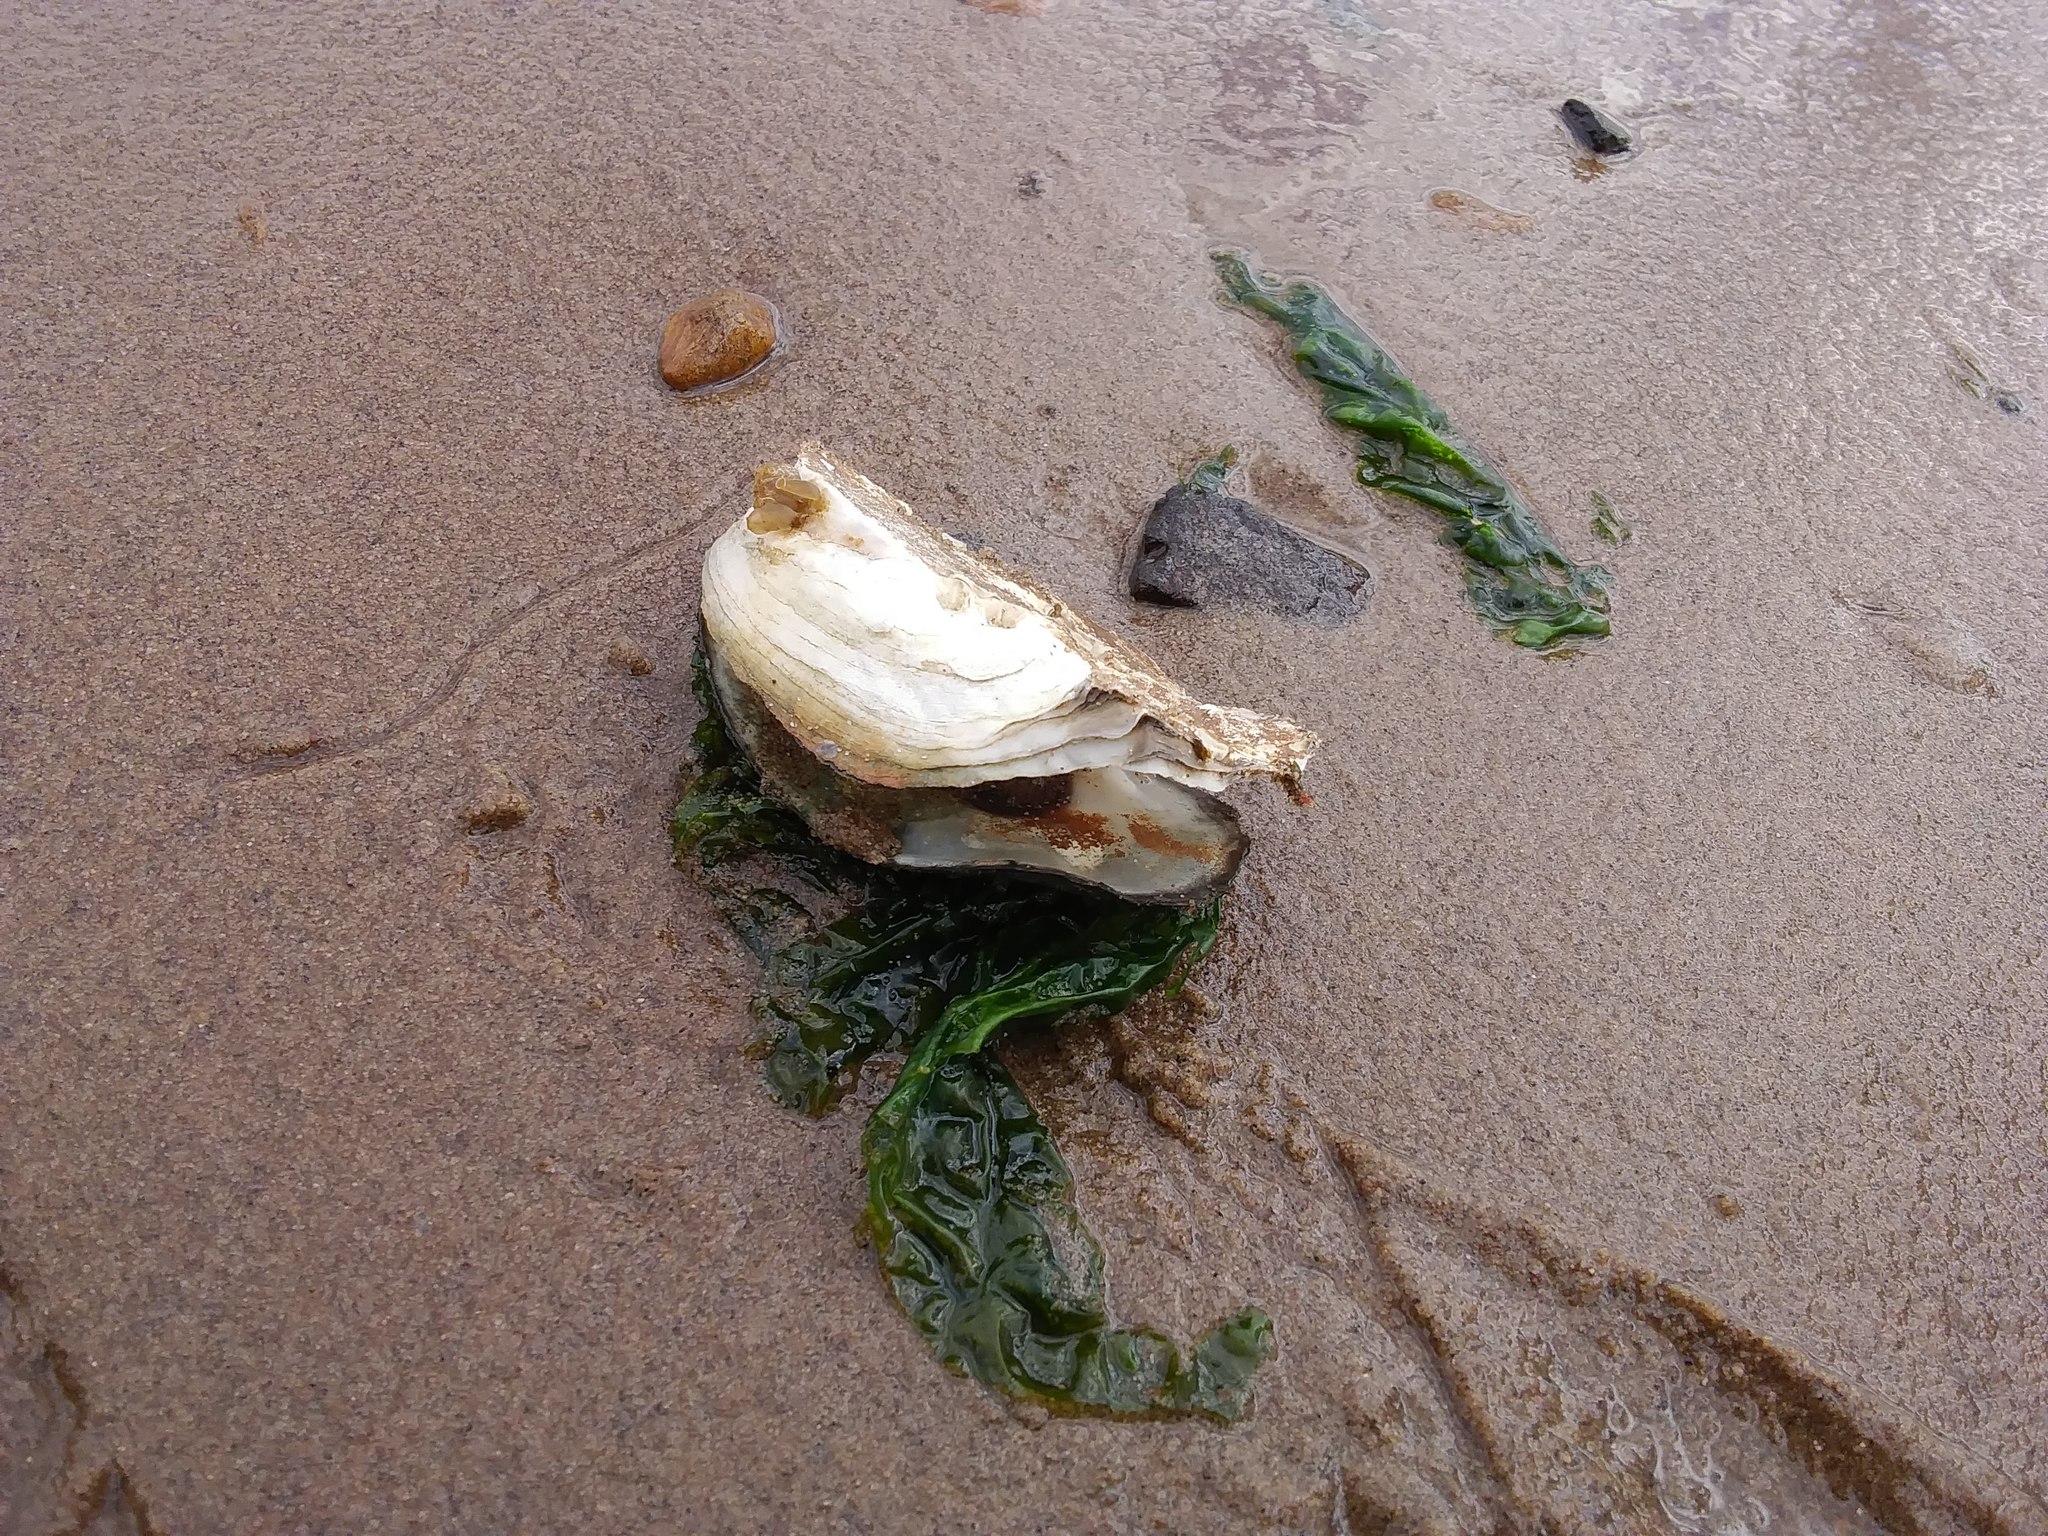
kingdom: Animalia
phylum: Mollusca
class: Bivalvia
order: Ostreida
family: Ostreidae
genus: Crassostrea
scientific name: Crassostrea virginica
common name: American oyster
